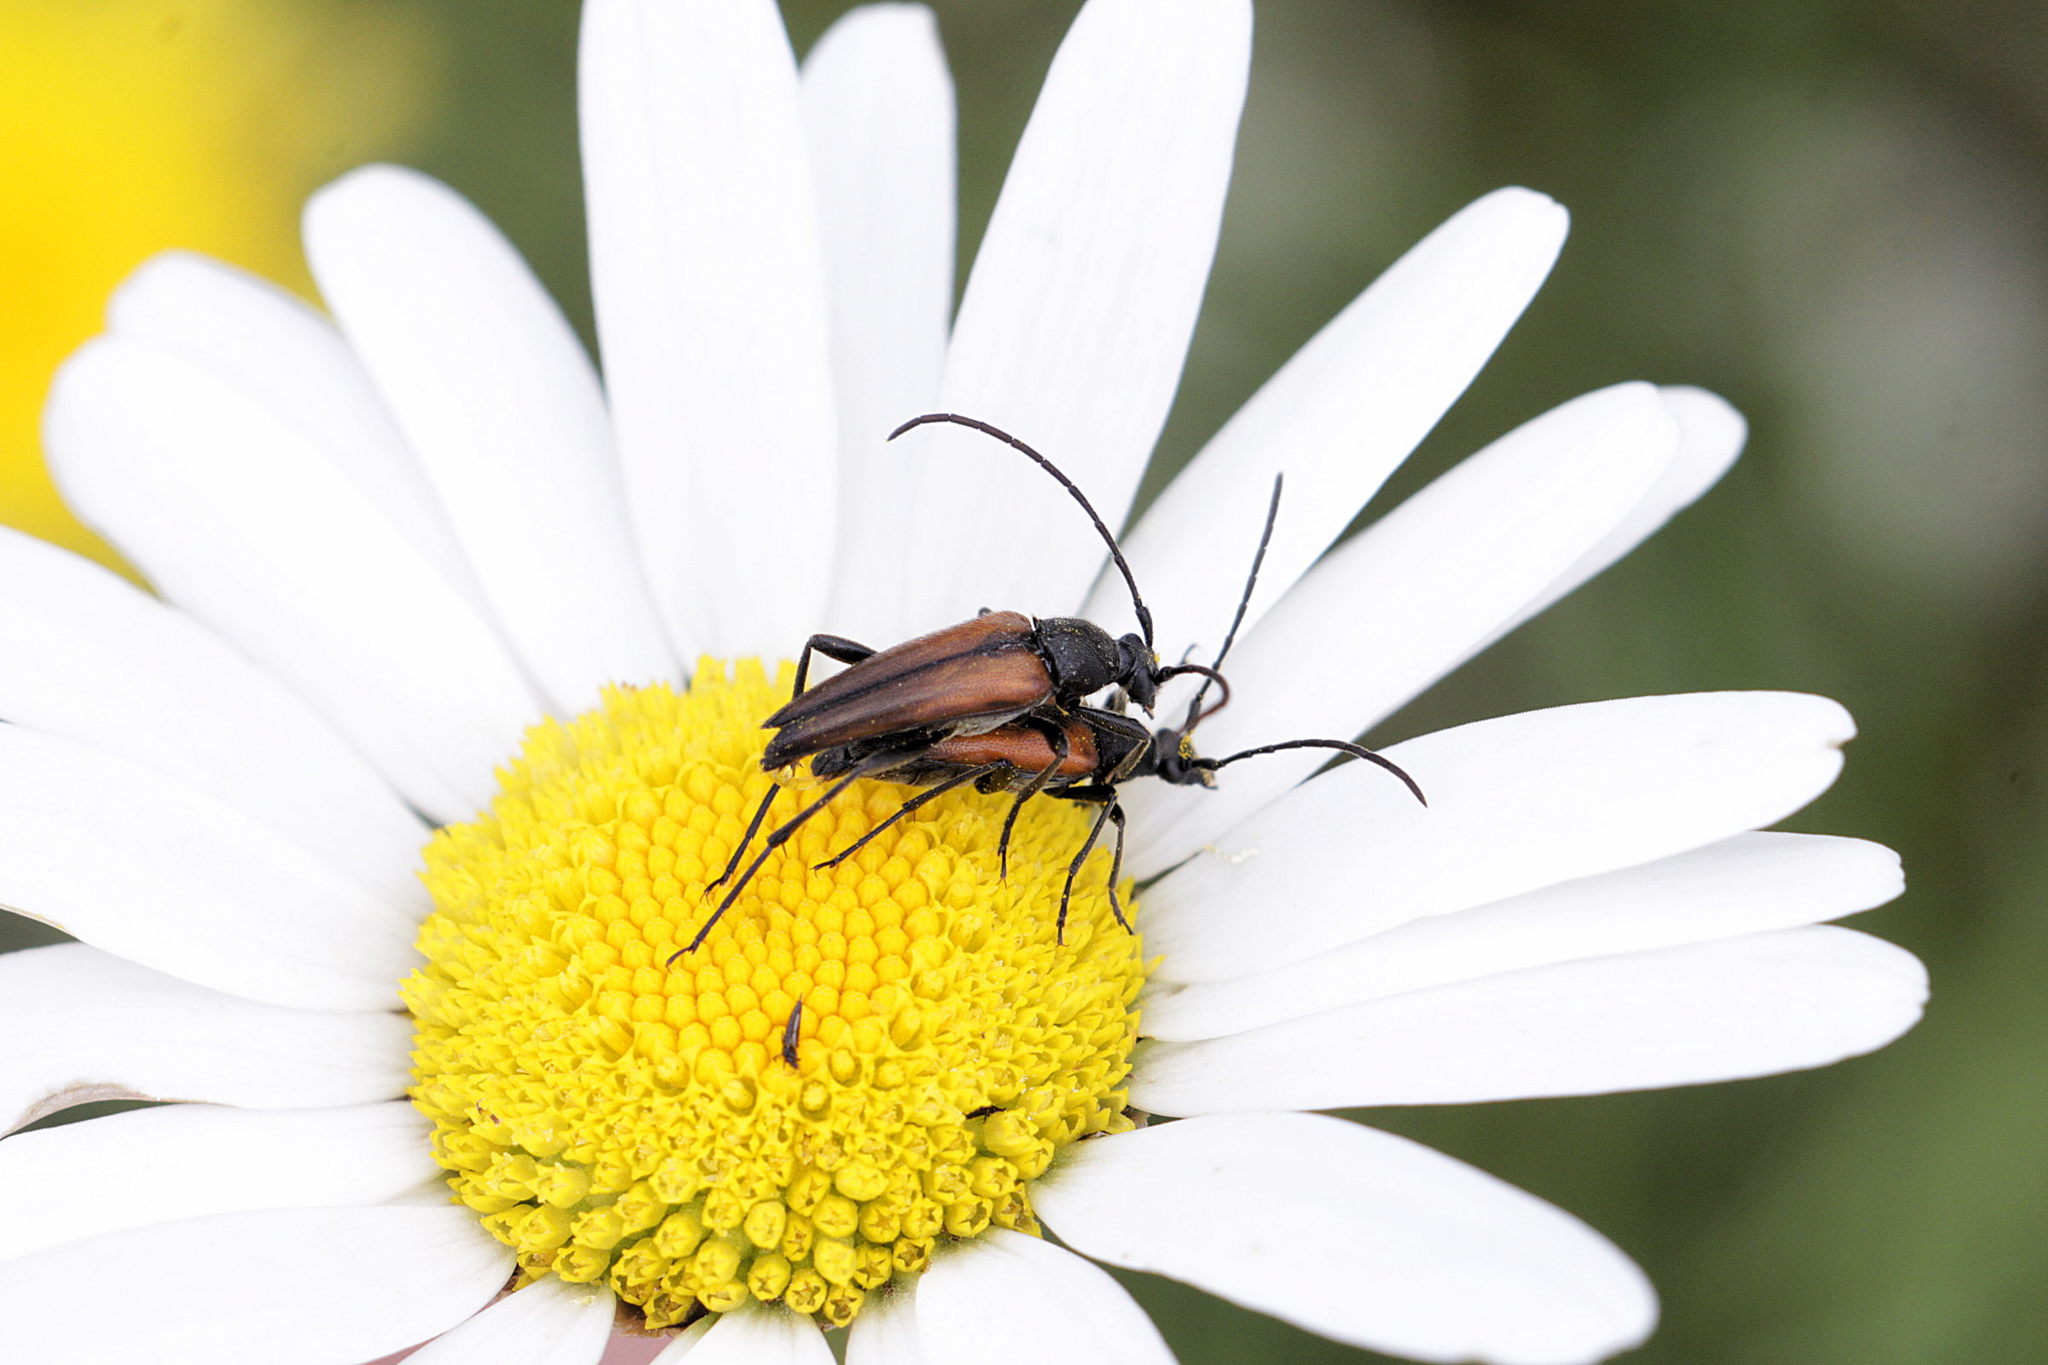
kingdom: Animalia
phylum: Arthropoda
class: Insecta
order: Coleoptera
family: Cerambycidae
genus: Stenurella
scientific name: Stenurella melanura
